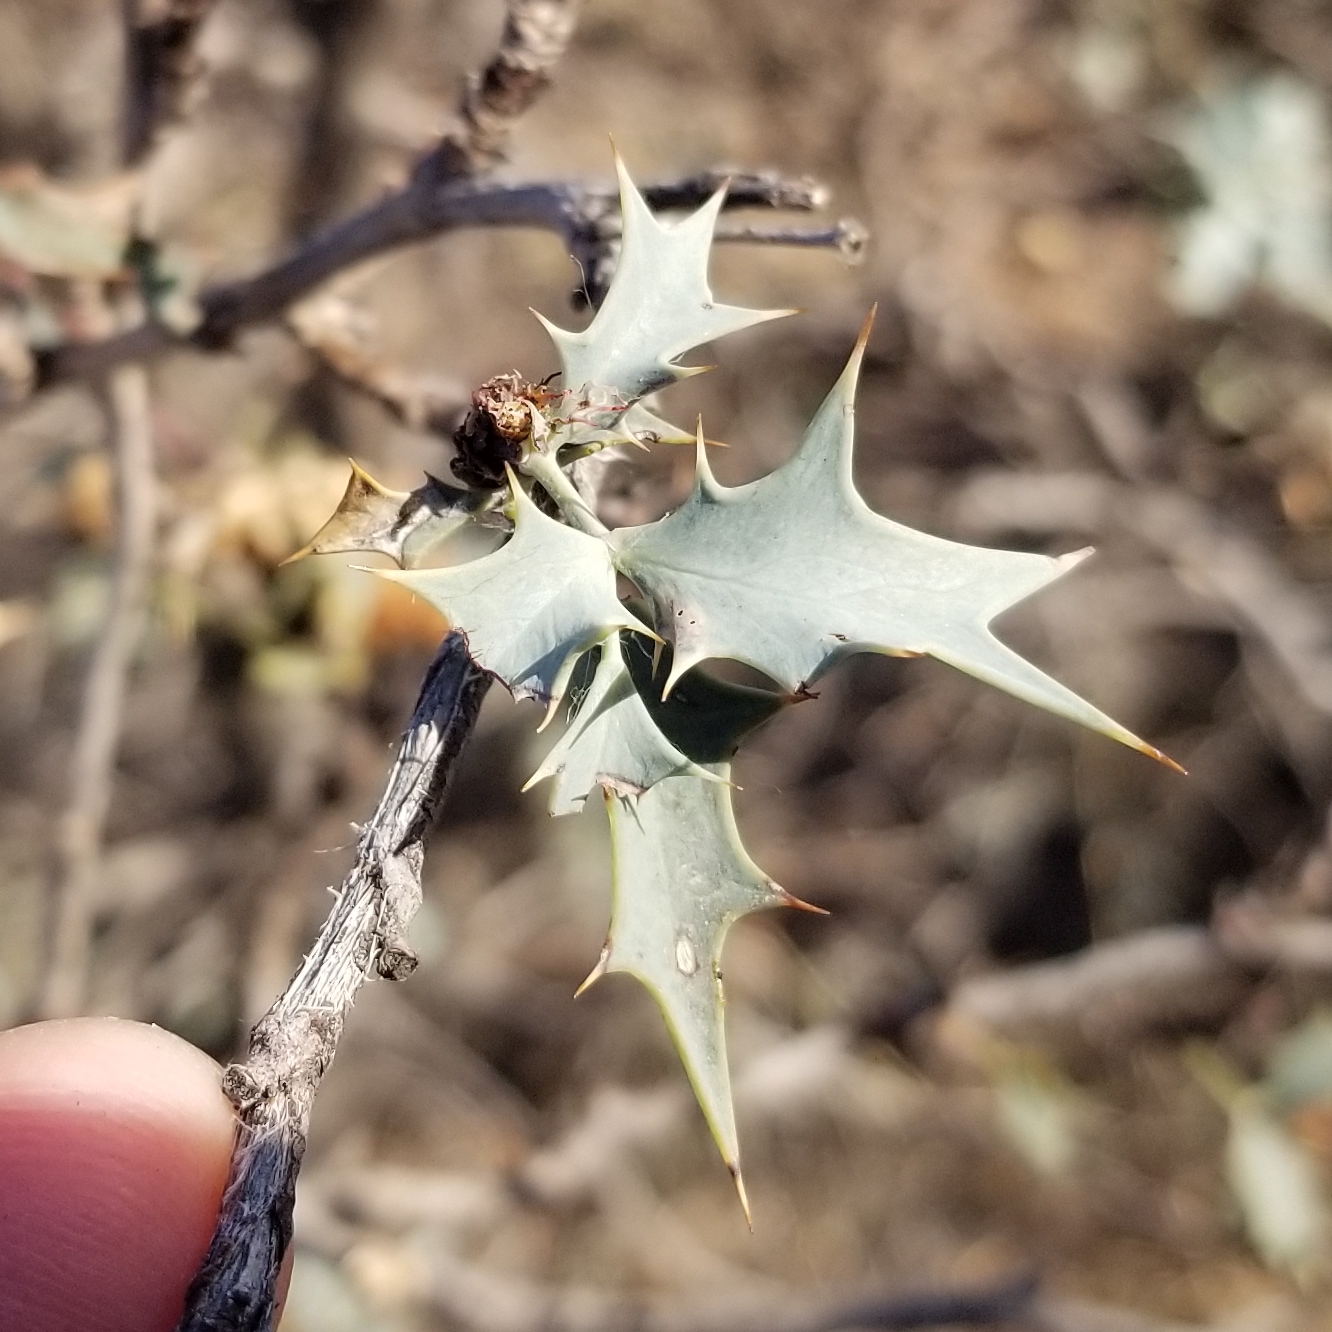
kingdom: Plantae
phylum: Tracheophyta
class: Magnoliopsida
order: Ranunculales
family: Berberidaceae
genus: Alloberberis
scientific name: Alloberberis fremontii
